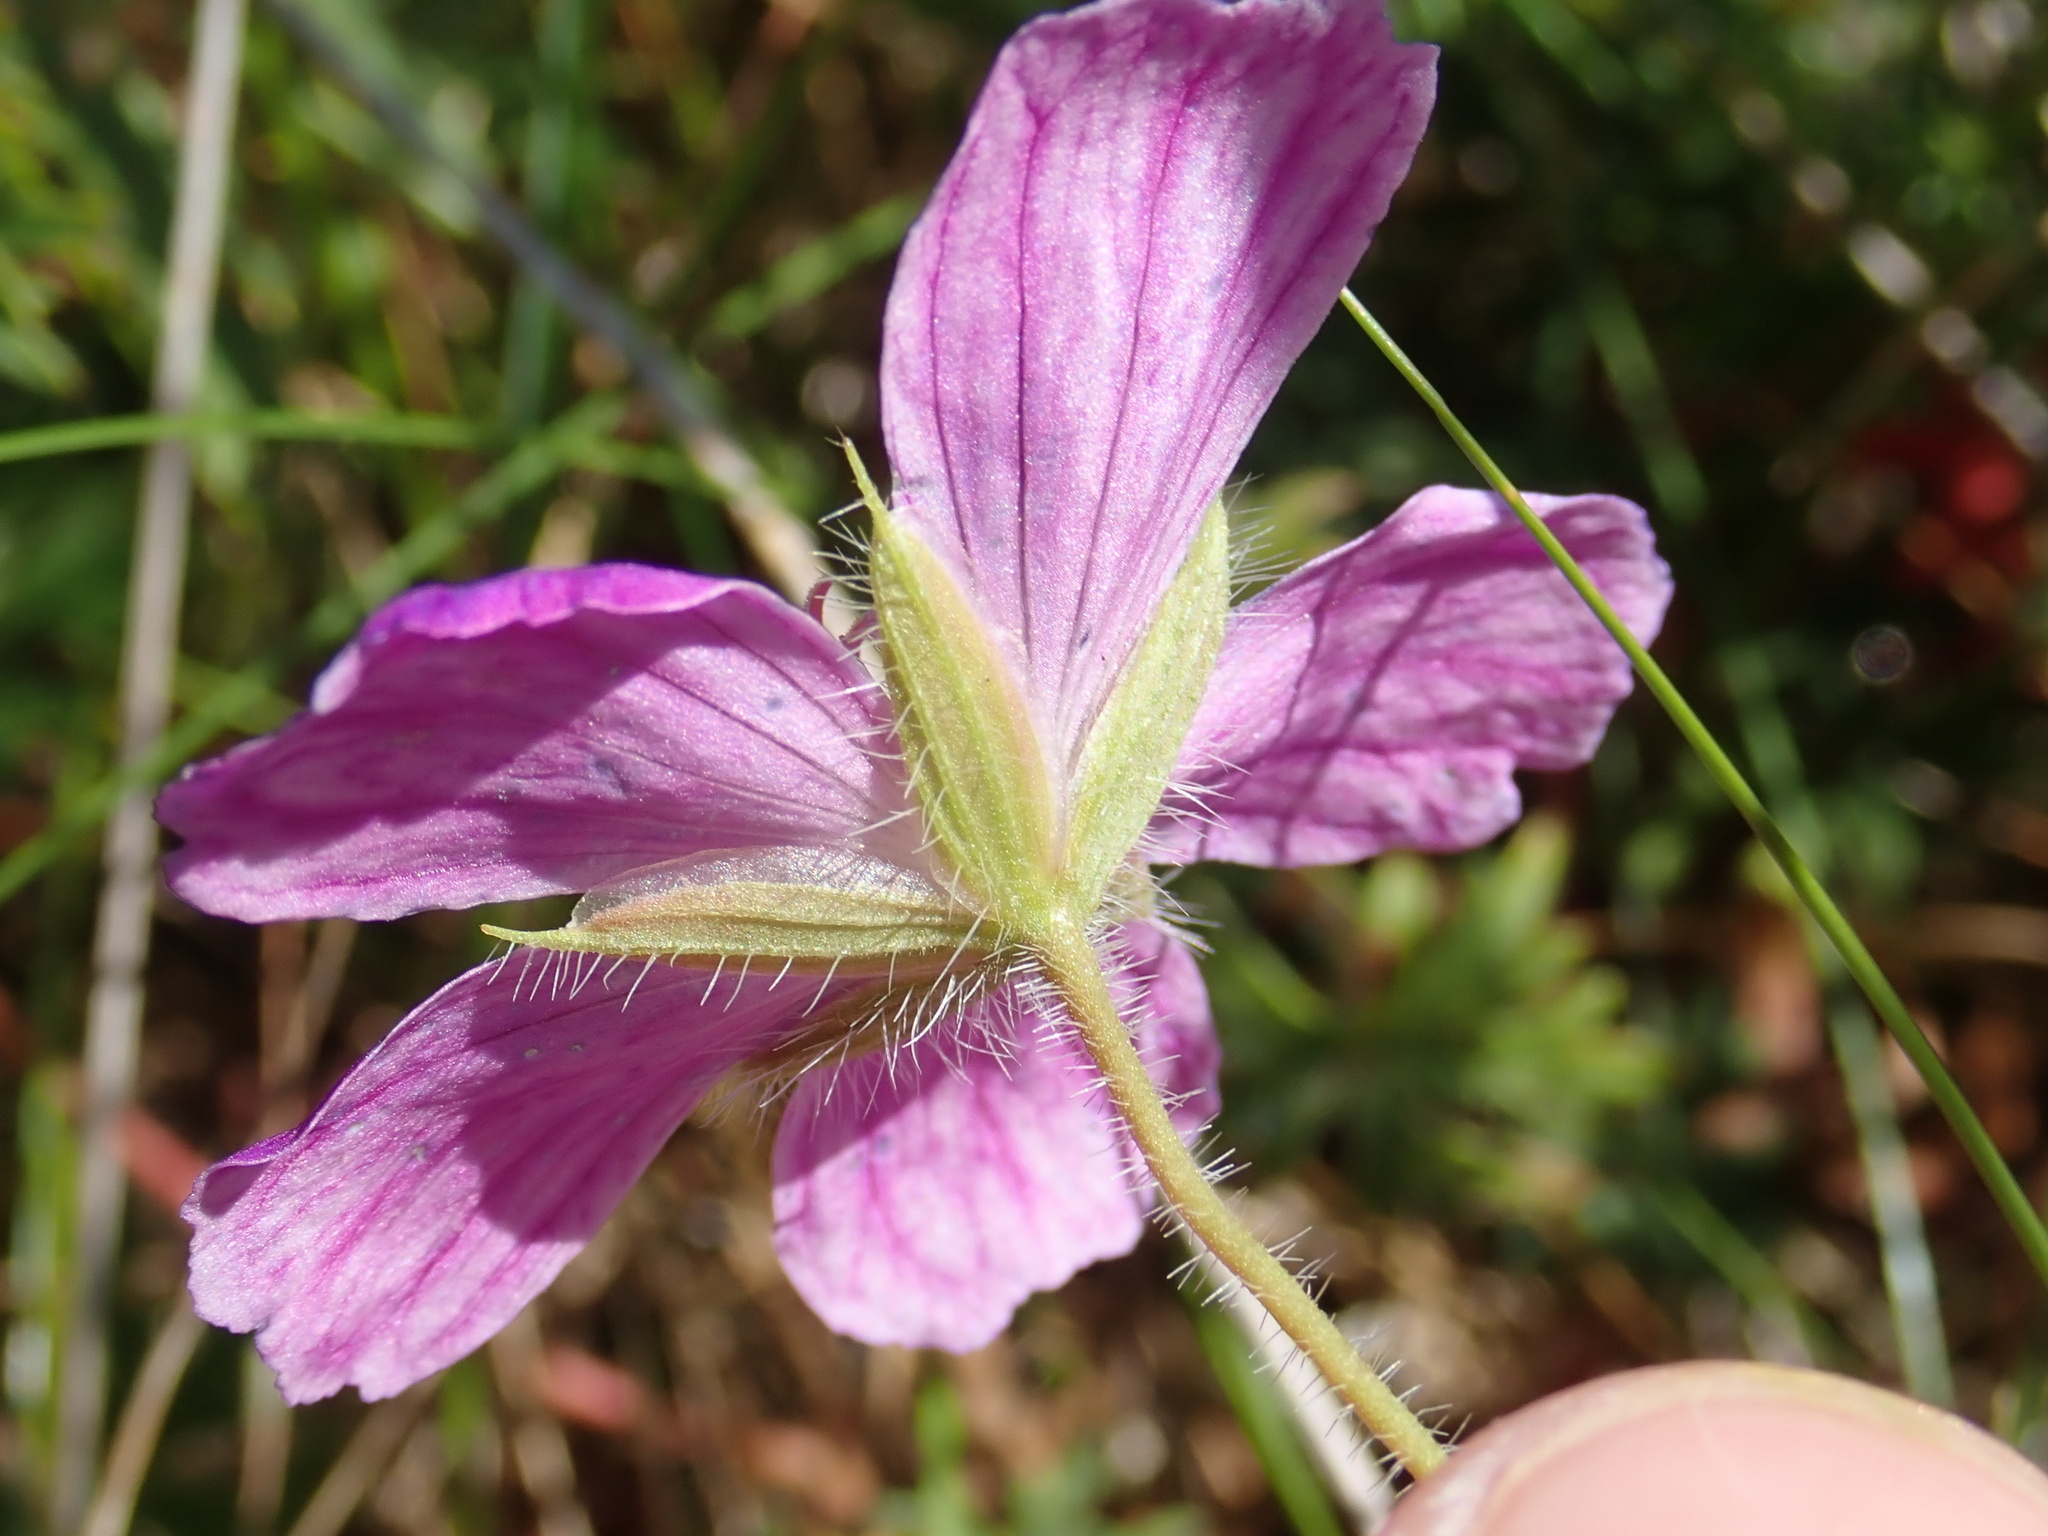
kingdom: Plantae
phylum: Tracheophyta
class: Magnoliopsida
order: Geraniales
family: Geraniaceae
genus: Geranium
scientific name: Geranium sanguineum
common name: Bloody crane's-bill
